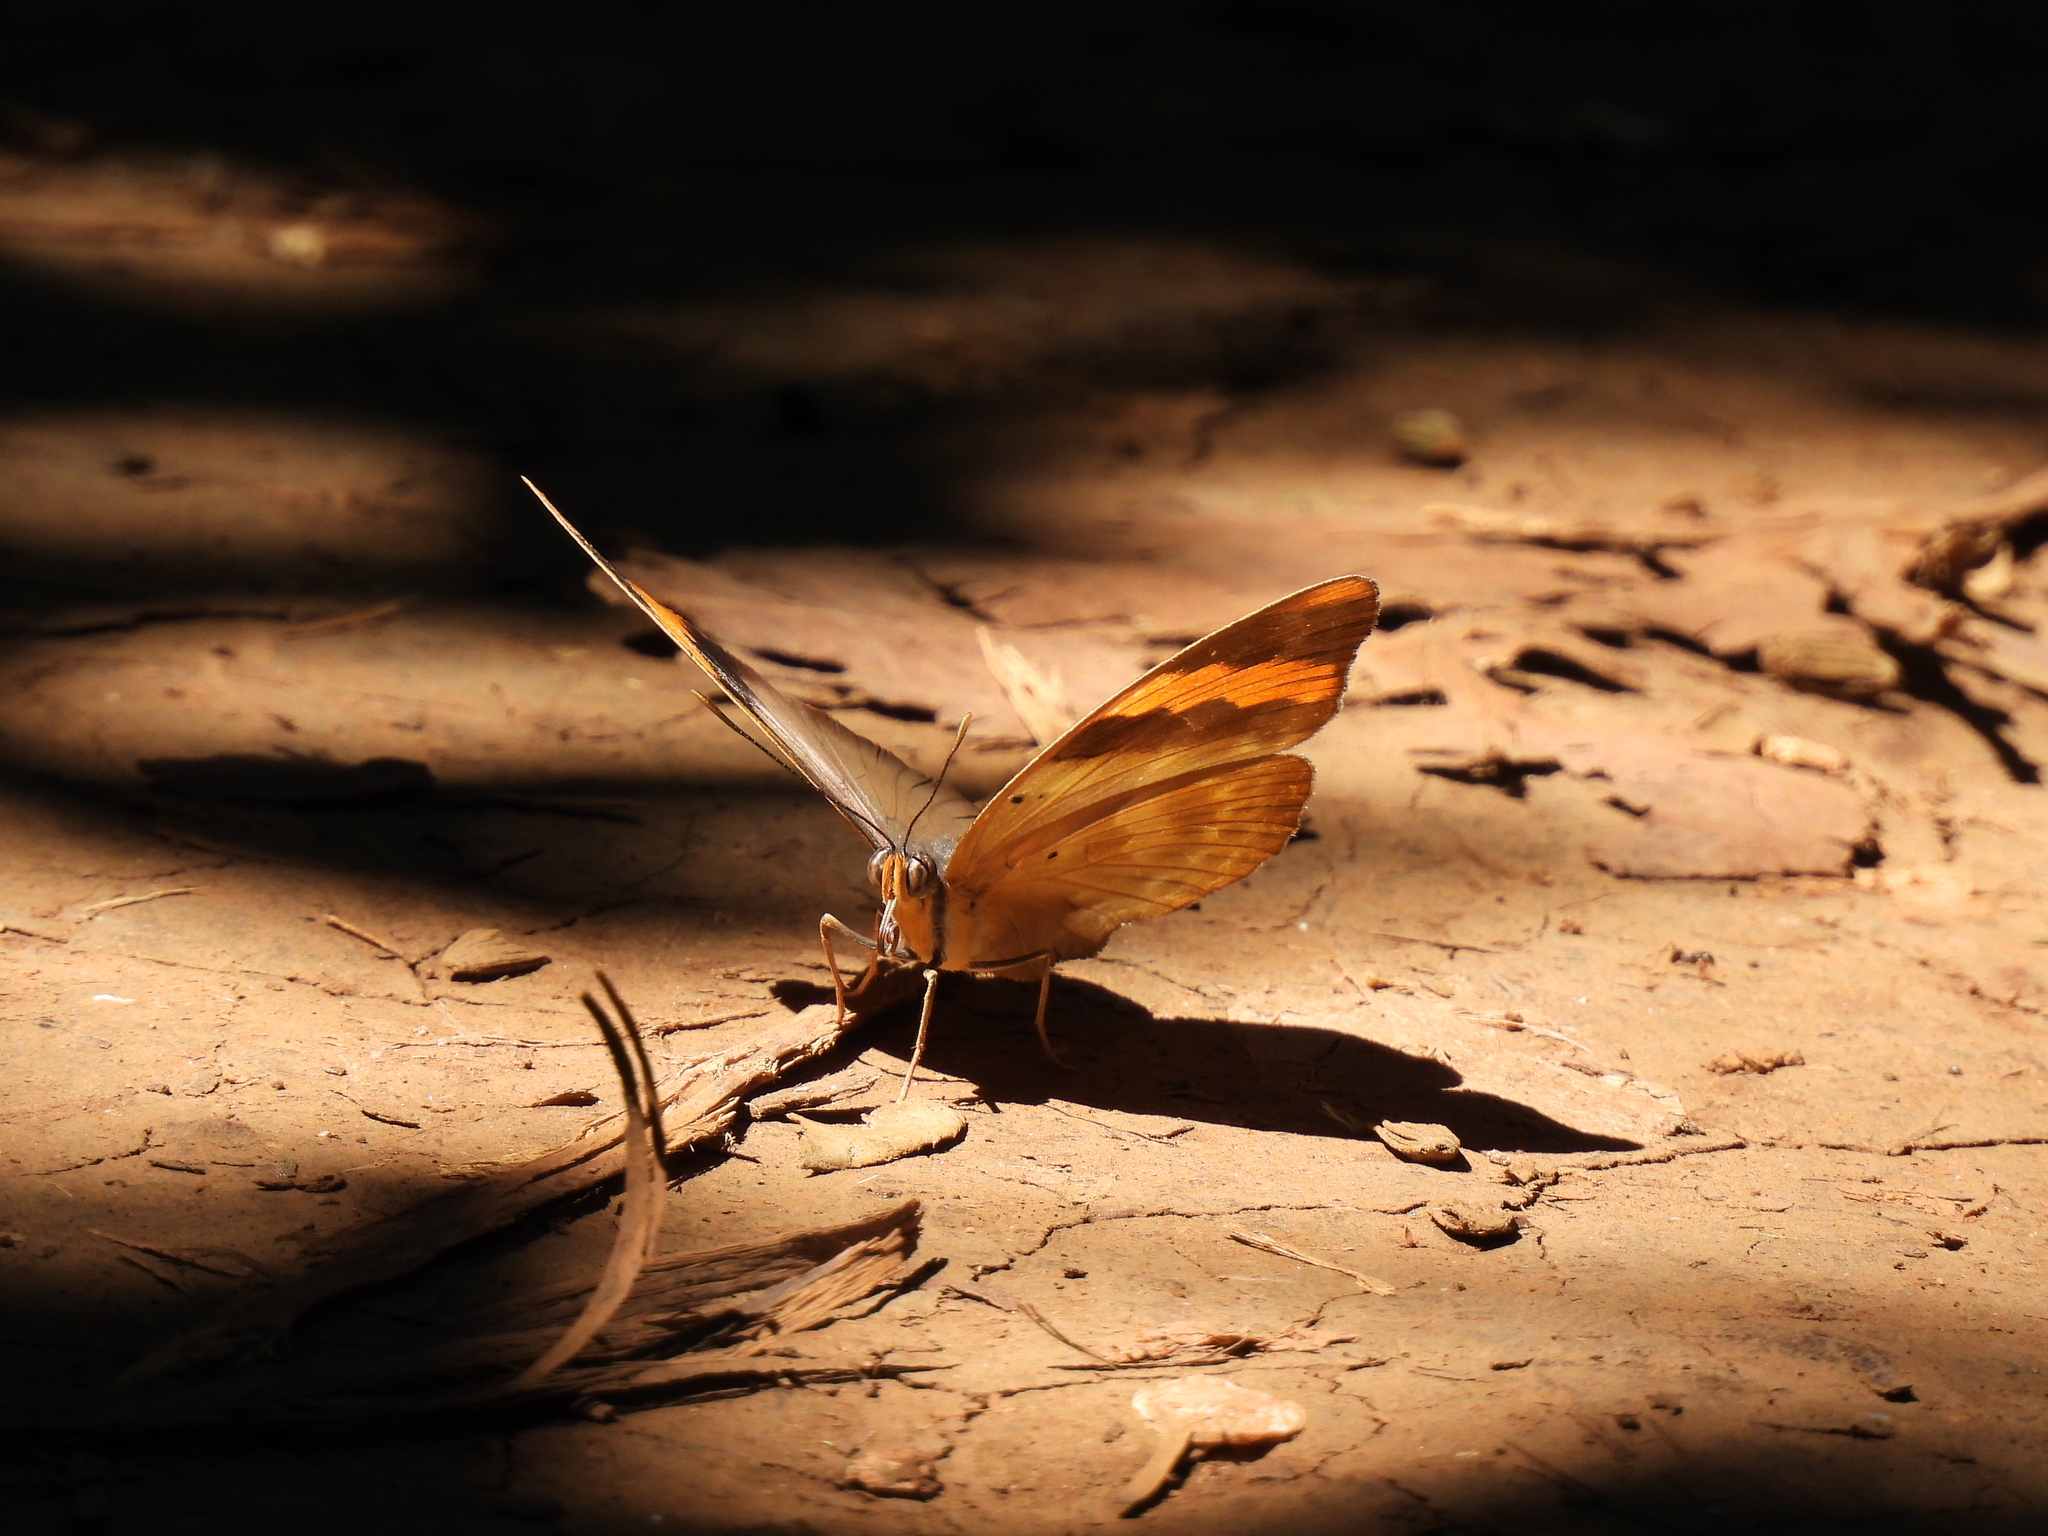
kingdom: Animalia
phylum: Arthropoda
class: Insecta
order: Lepidoptera
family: Nymphalidae
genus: Euphaedra
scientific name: Euphaedra neophron
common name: Gold-banded forester
